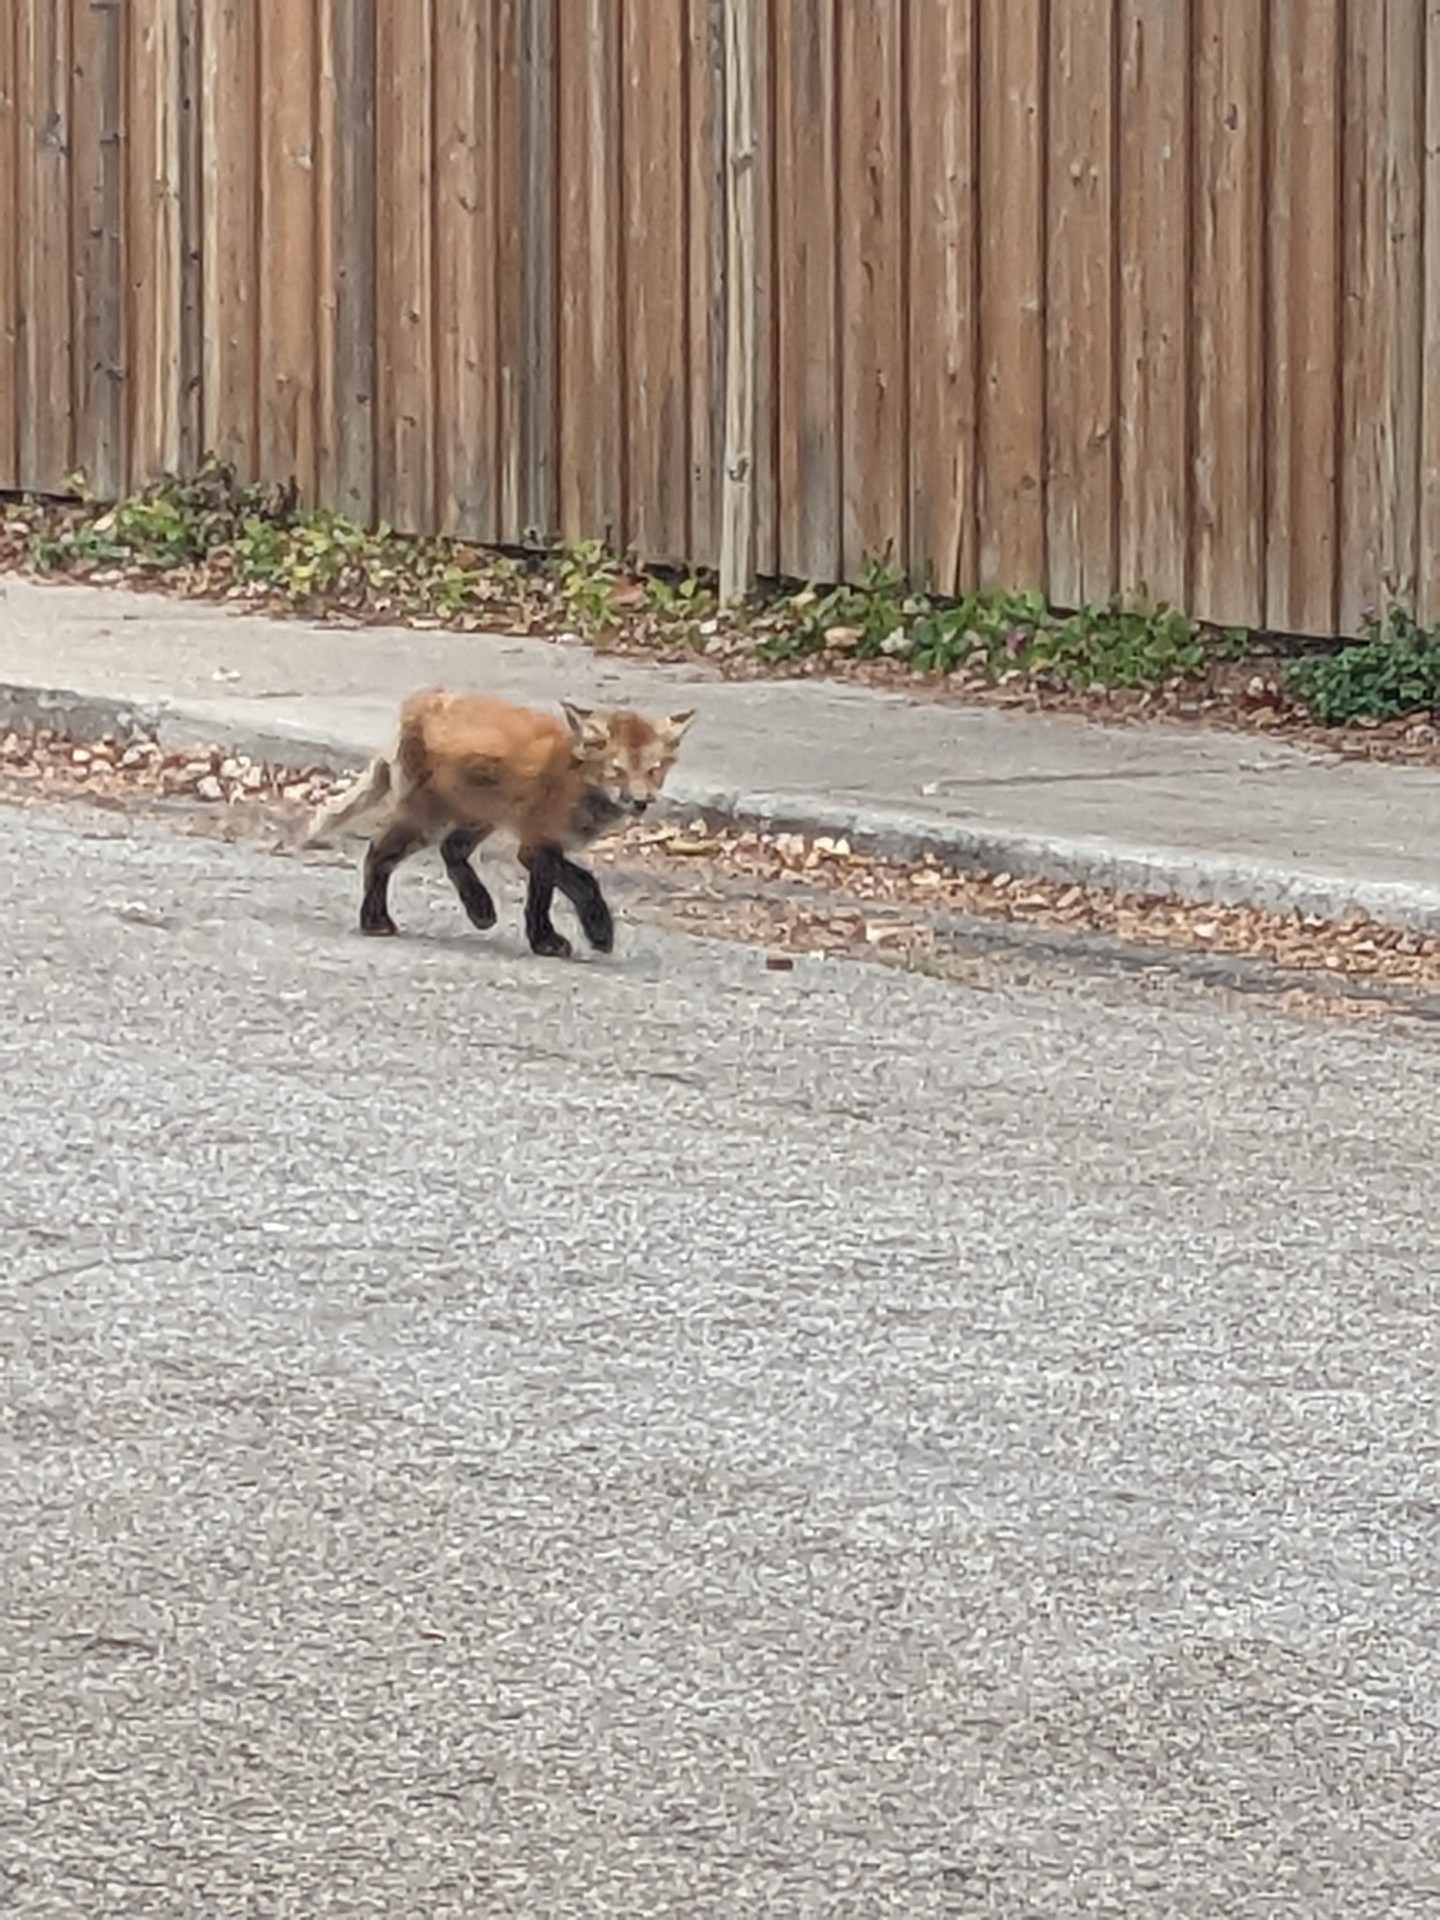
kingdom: Animalia
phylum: Chordata
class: Mammalia
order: Carnivora
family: Canidae
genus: Vulpes
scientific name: Vulpes vulpes
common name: Red fox
